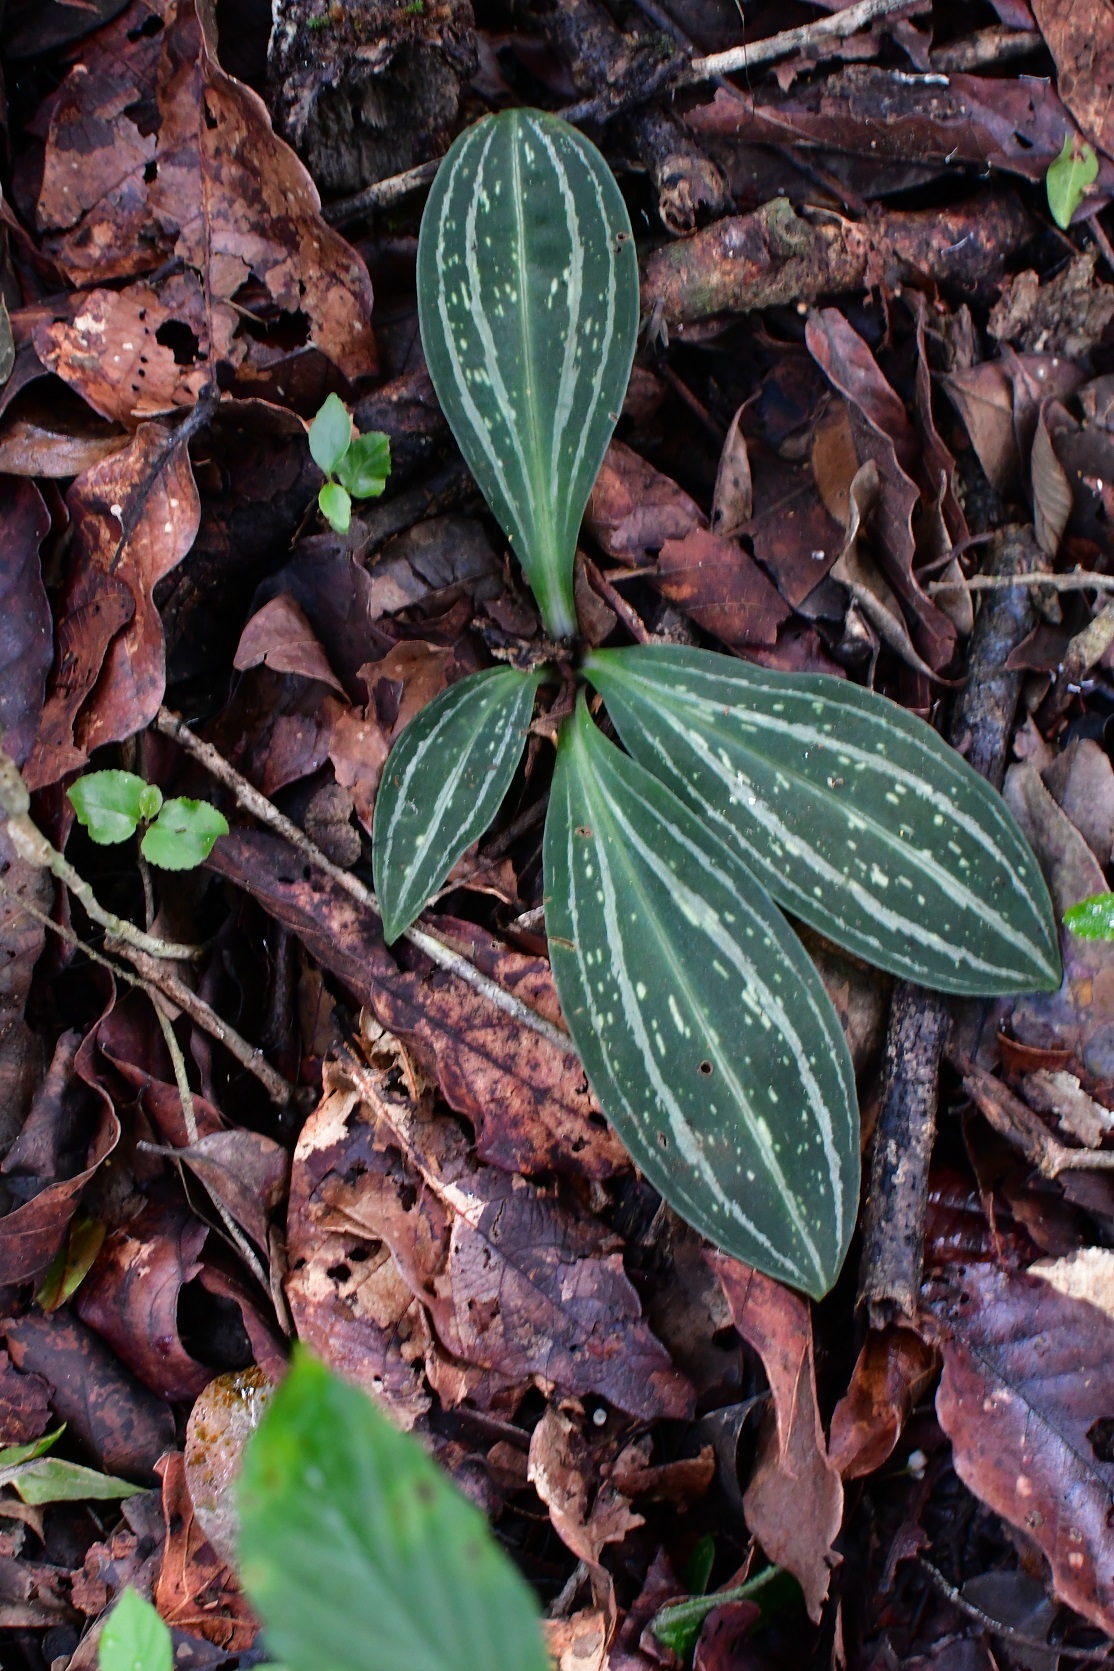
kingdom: Plantae
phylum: Tracheophyta
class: Liliopsida
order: Asparagales
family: Orchidaceae
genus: Sarcoglottis
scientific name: Sarcoglottis sceptrodes
